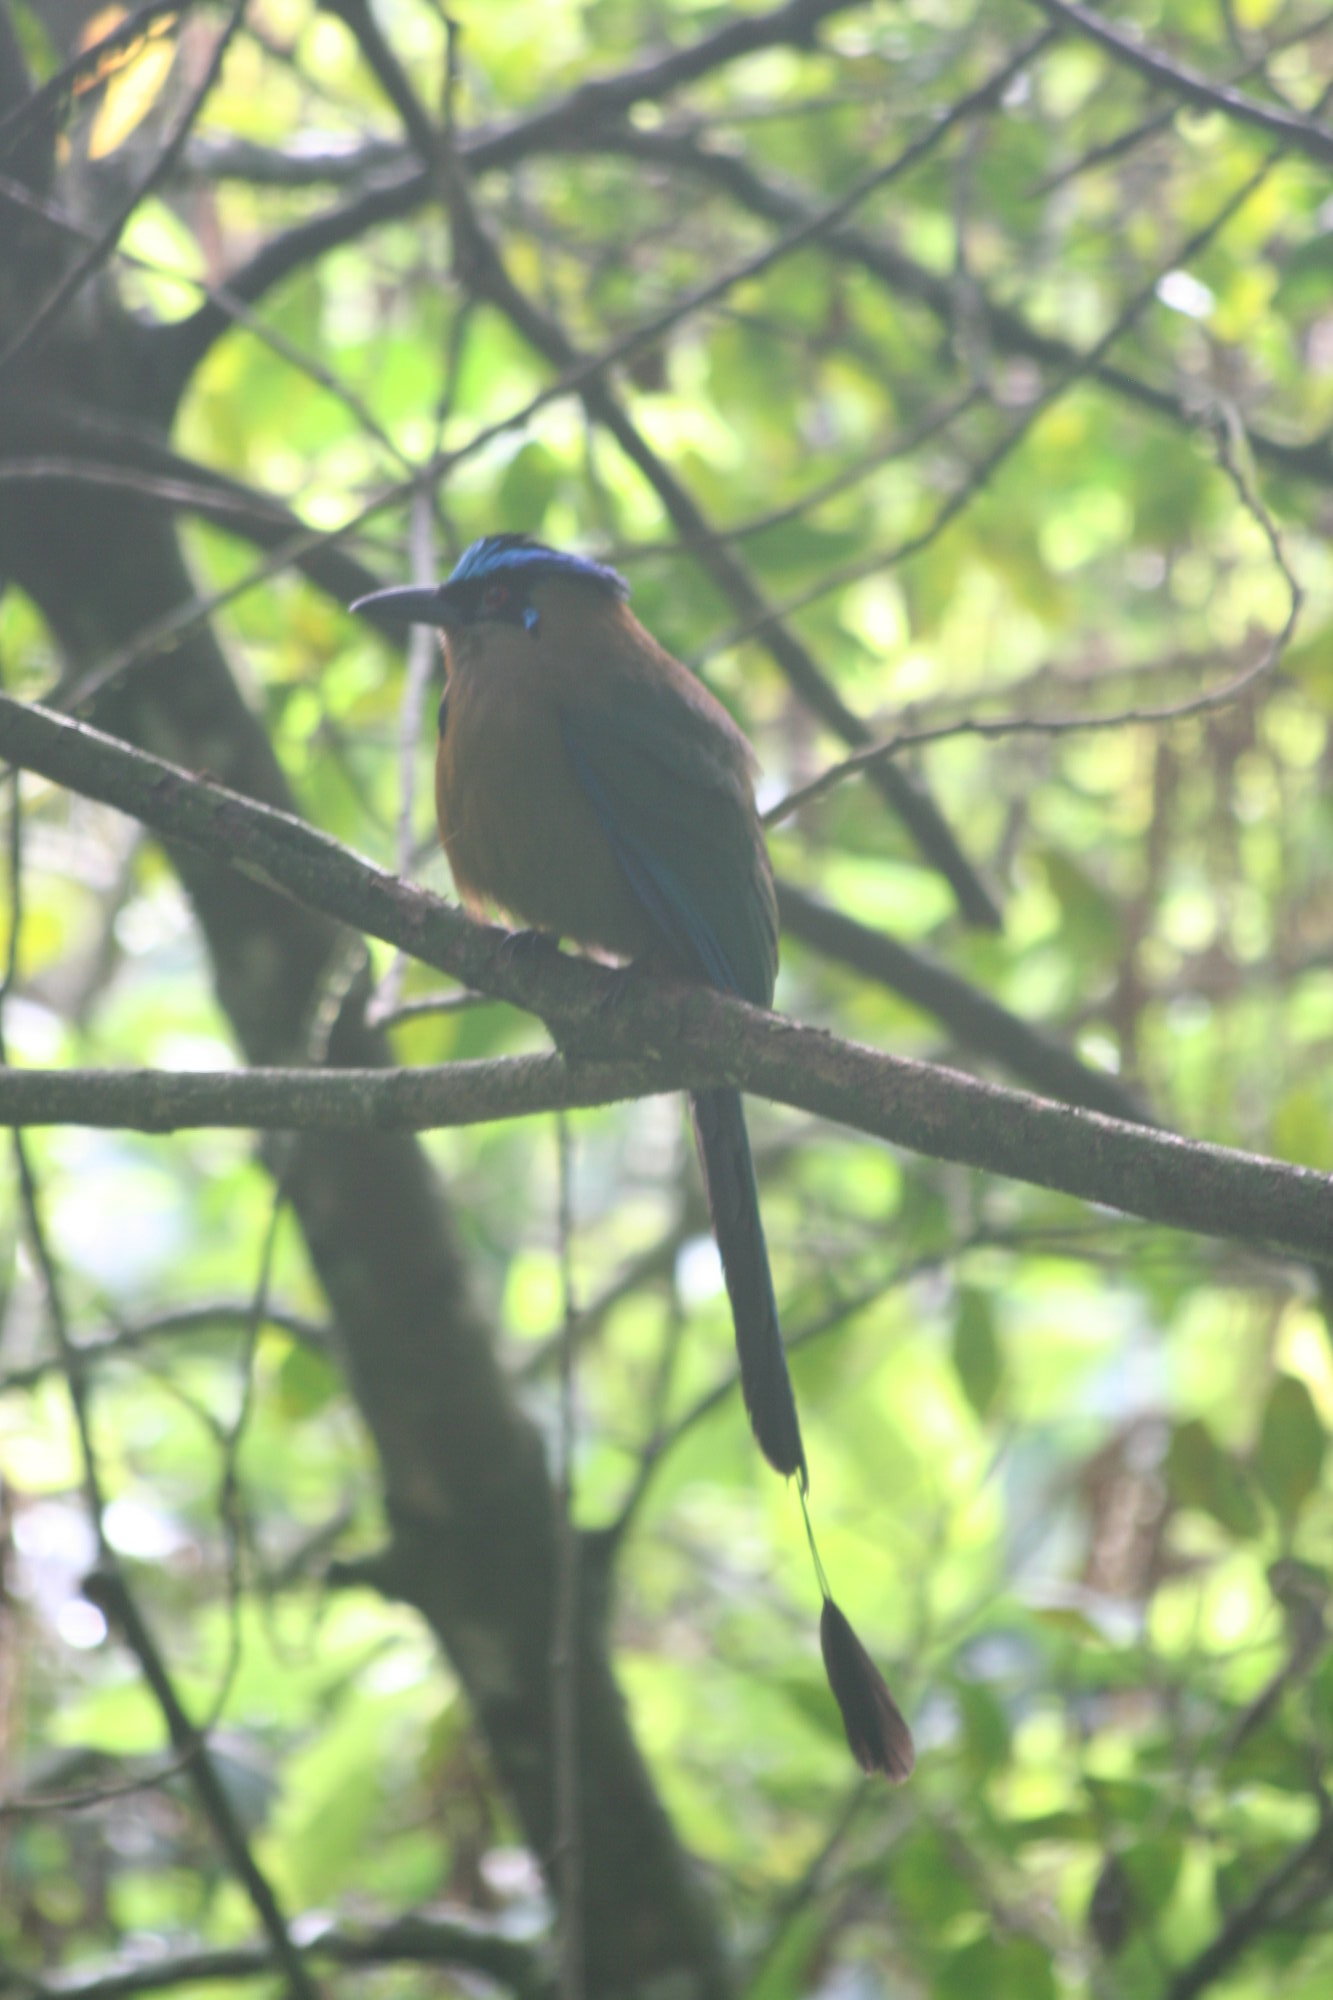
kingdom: Animalia
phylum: Chordata
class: Aves
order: Coraciiformes
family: Momotidae
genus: Momotus
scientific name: Momotus aequatorialis
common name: Andean motmot
